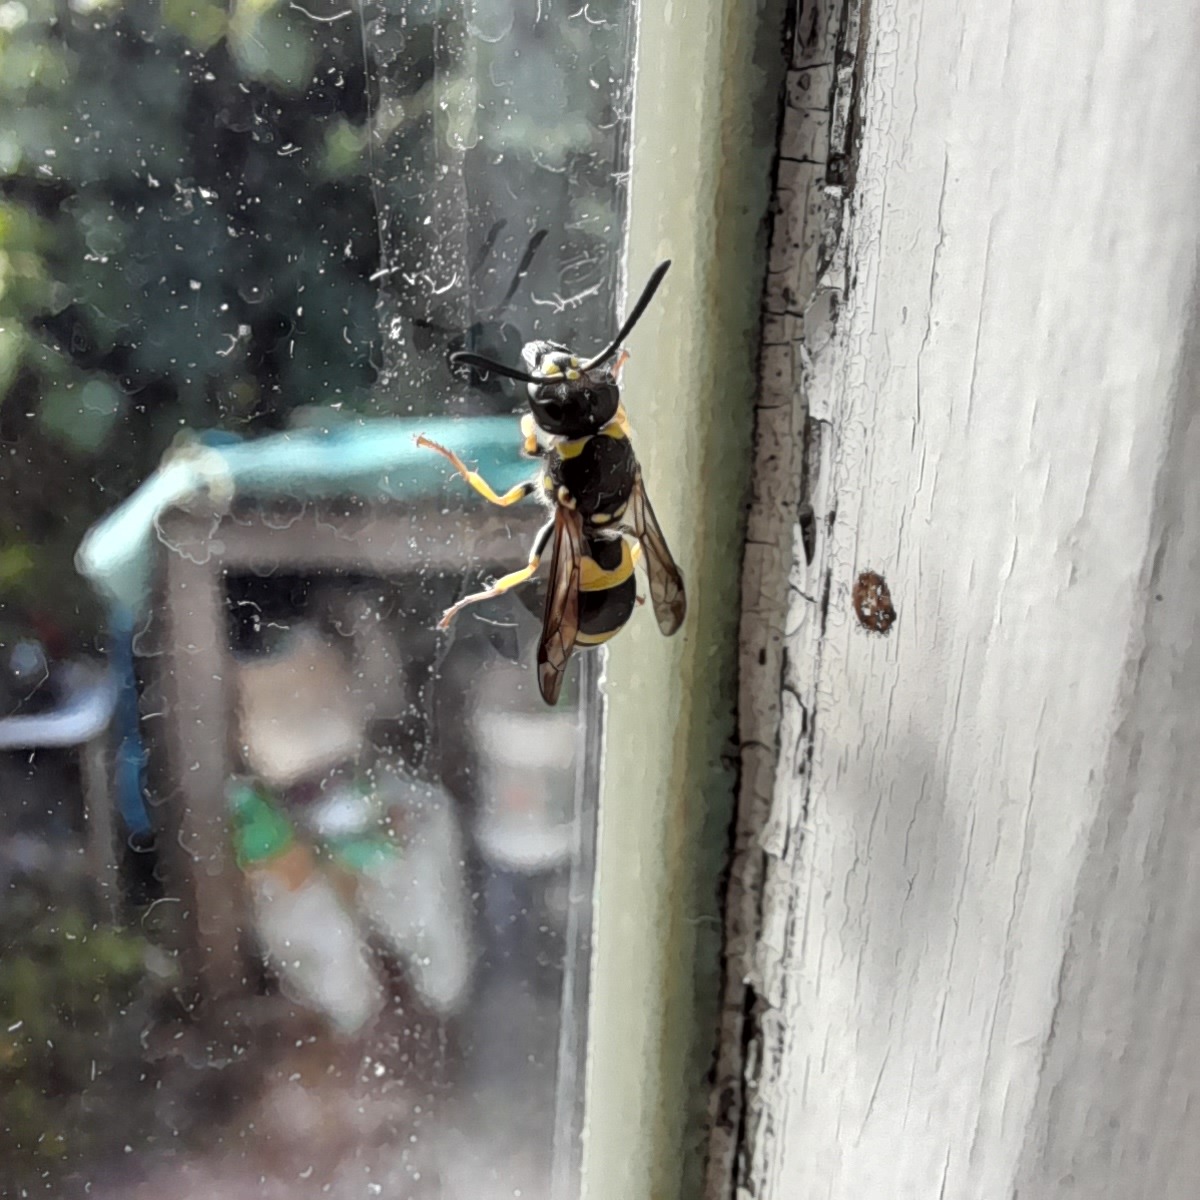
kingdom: Animalia
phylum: Arthropoda
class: Insecta
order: Hymenoptera
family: Vespidae
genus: Ancistrocerus
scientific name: Ancistrocerus gazella
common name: European tube wasp
